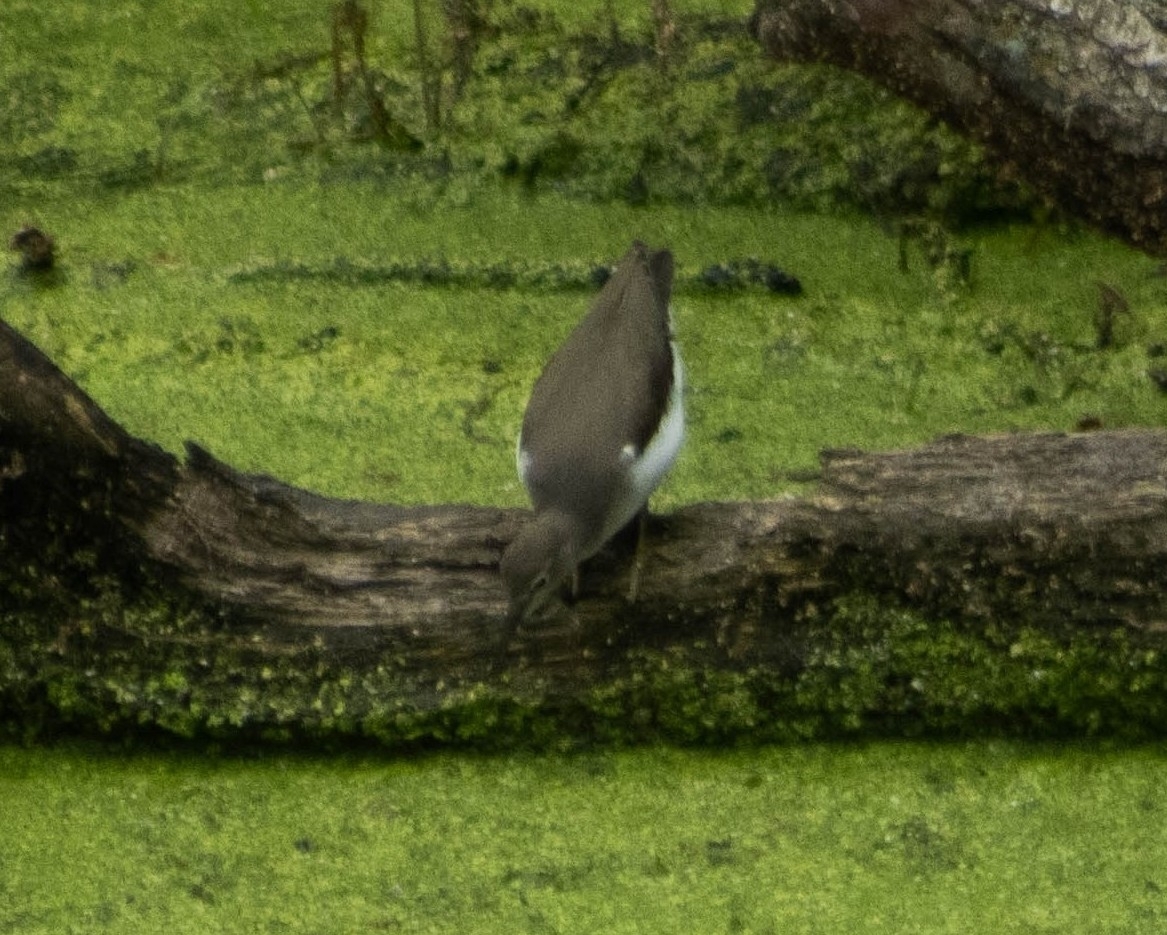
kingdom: Animalia
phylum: Chordata
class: Aves
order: Charadriiformes
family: Scolopacidae
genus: Actitis
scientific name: Actitis macularius
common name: Spotted sandpiper
